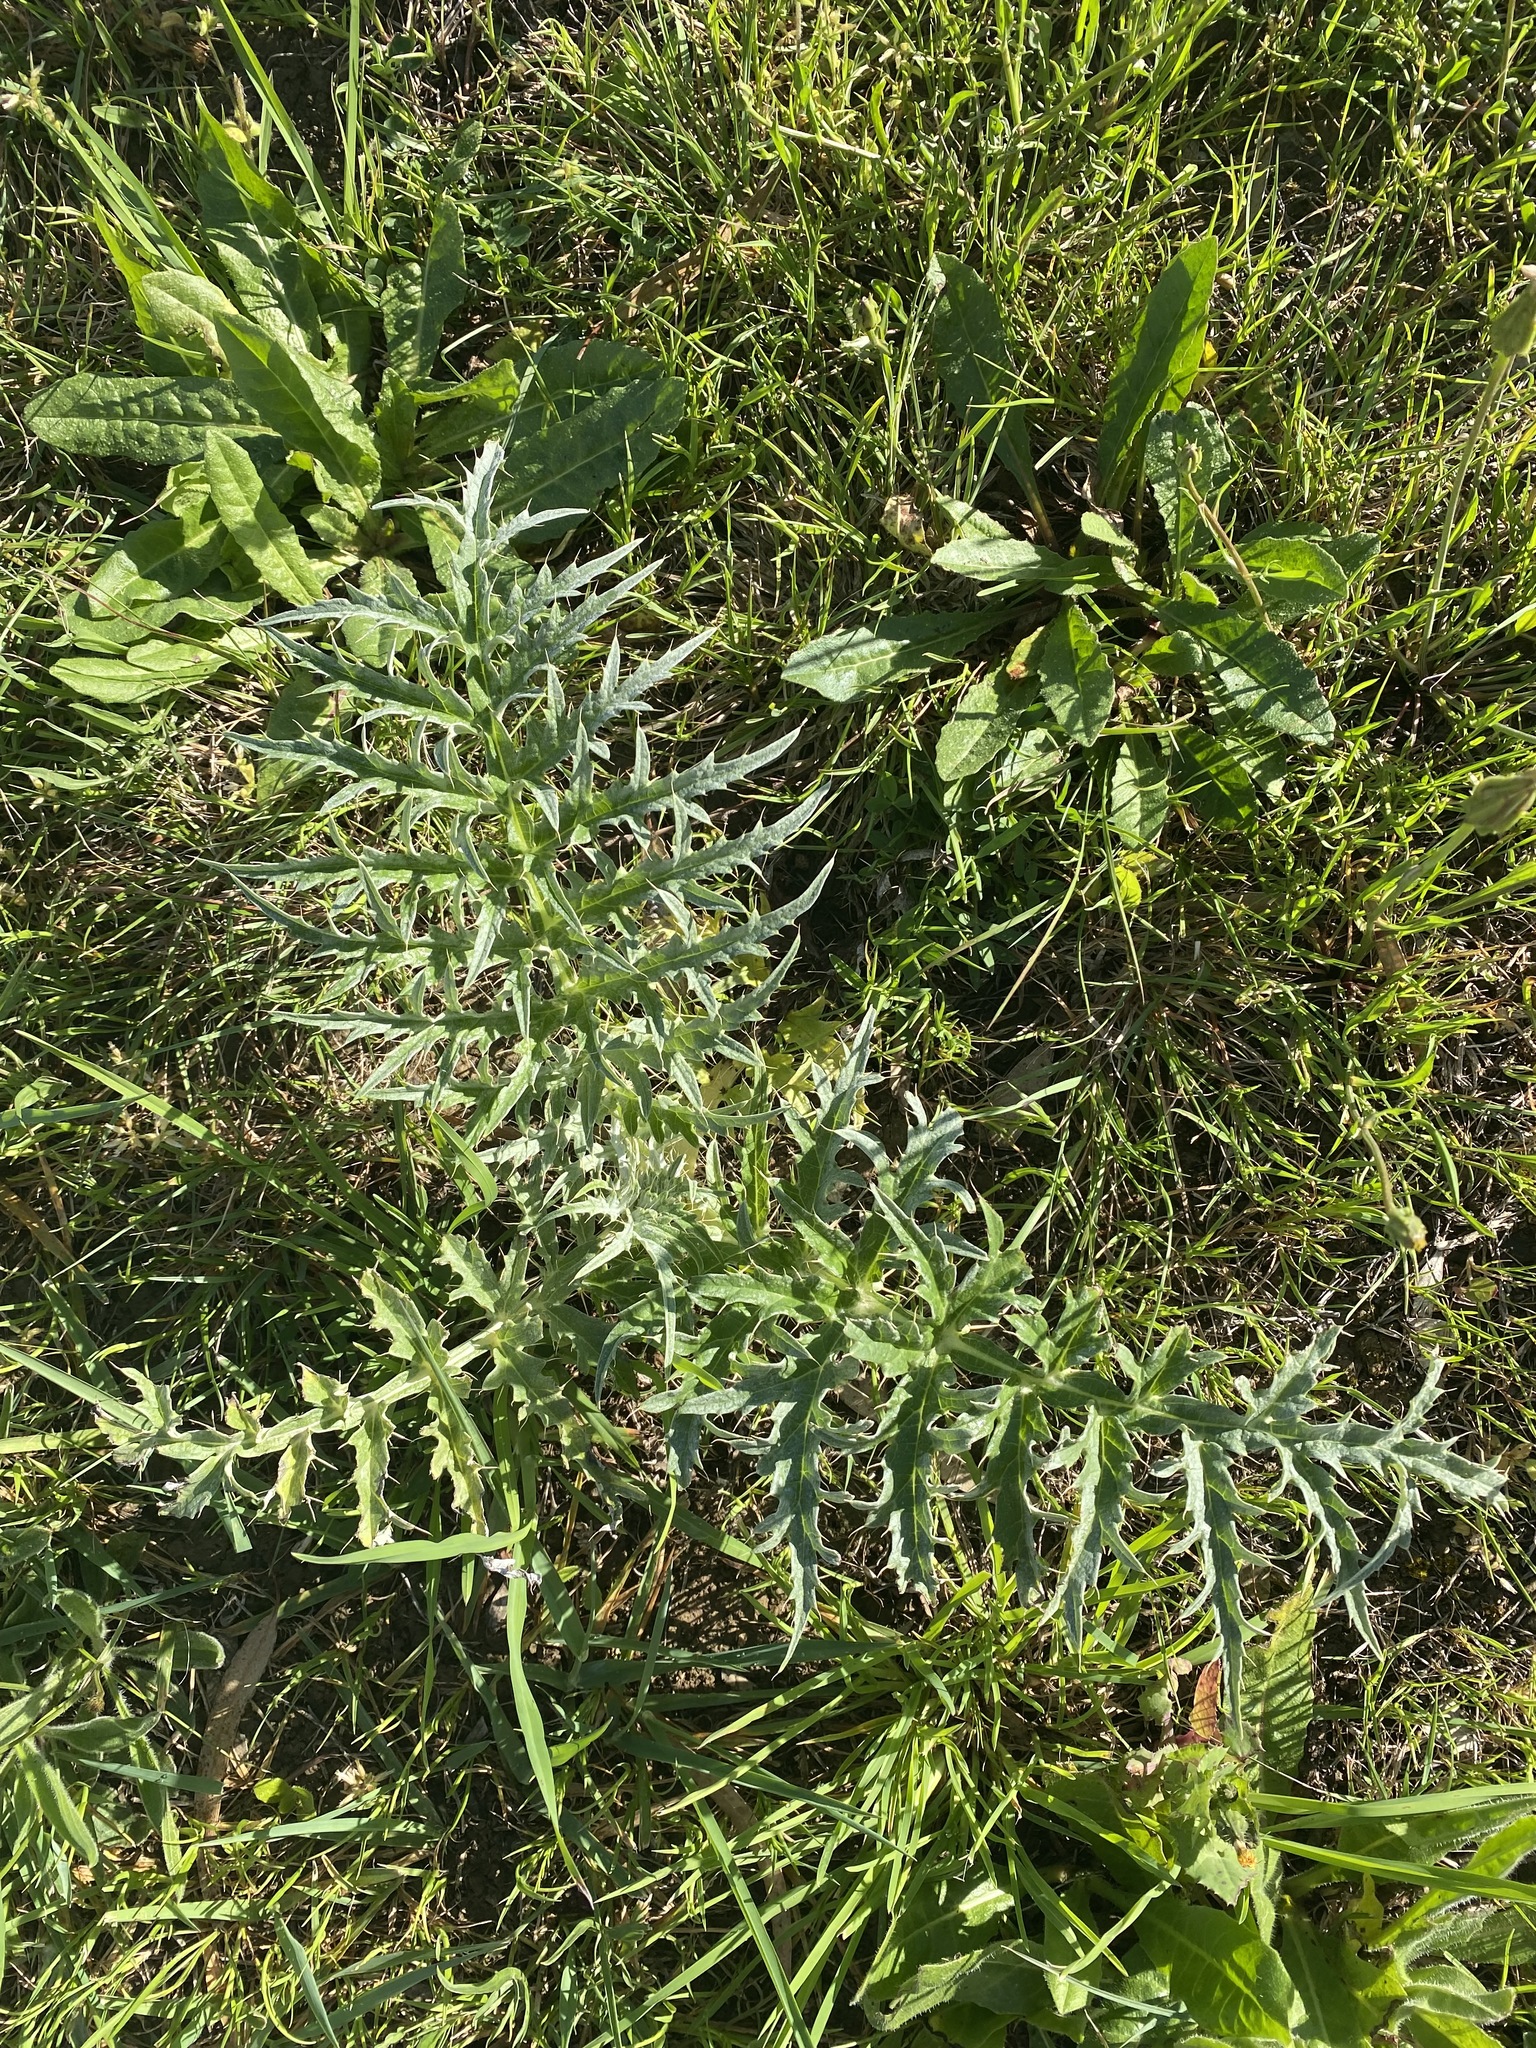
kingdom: Plantae
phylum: Tracheophyta
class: Magnoliopsida
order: Asterales
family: Asteraceae
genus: Cynara
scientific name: Cynara cardunculus
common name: Globe artichoke
